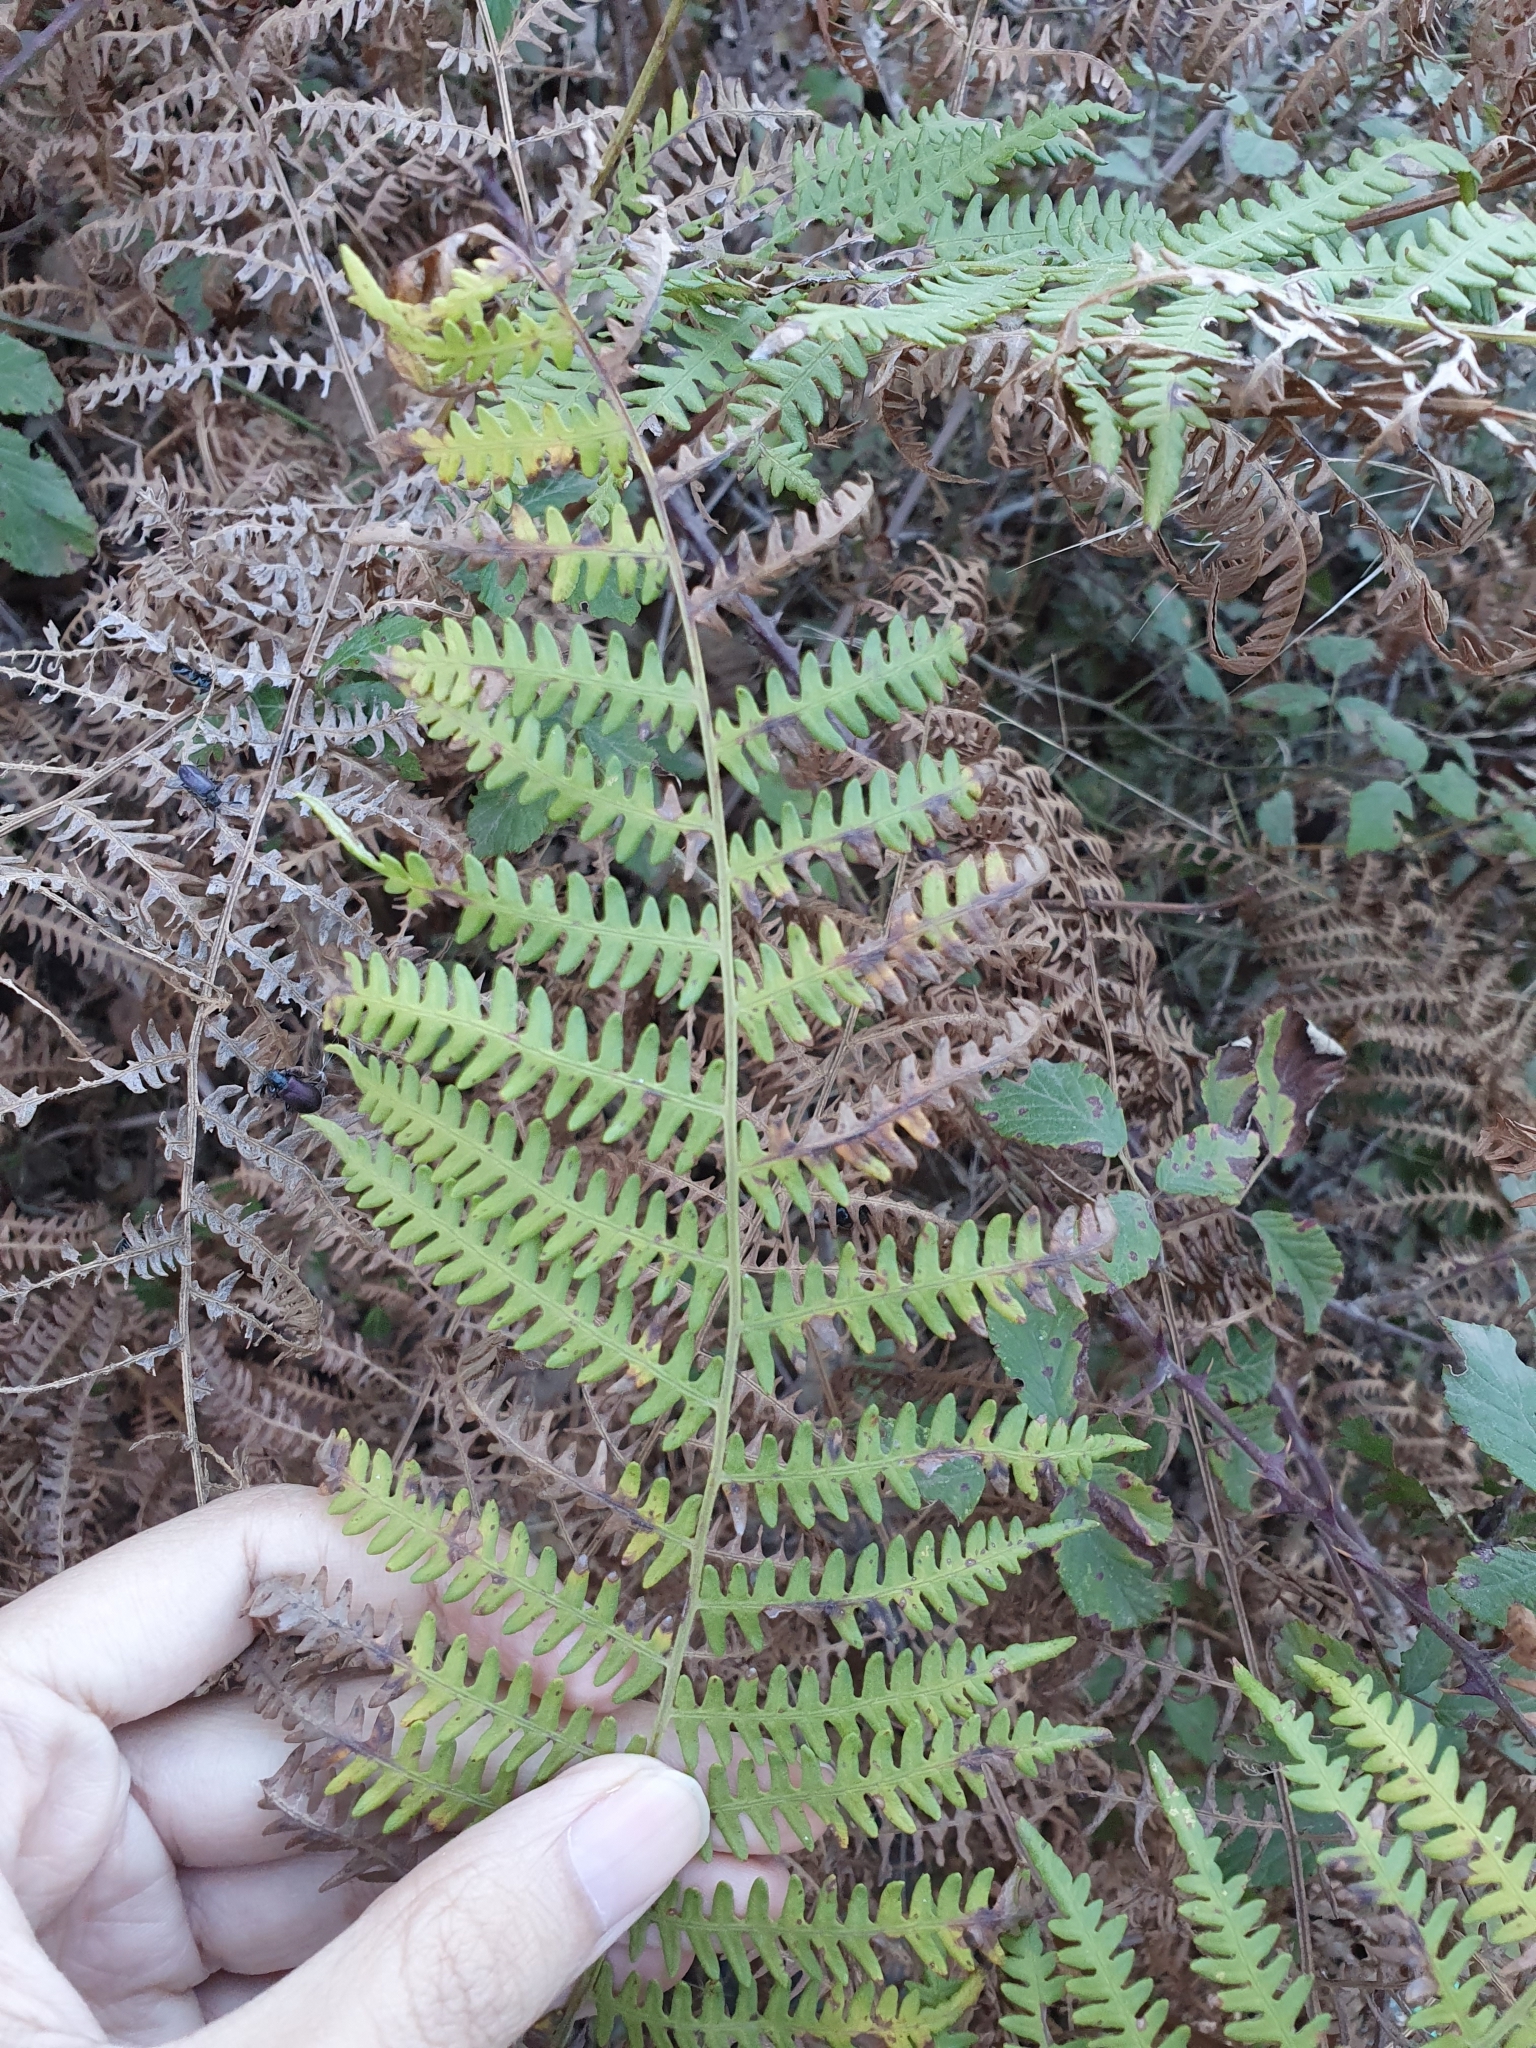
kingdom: Plantae
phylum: Tracheophyta
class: Polypodiopsida
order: Polypodiales
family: Dennstaedtiaceae
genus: Pteridium
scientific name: Pteridium aquilinum
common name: Bracken
